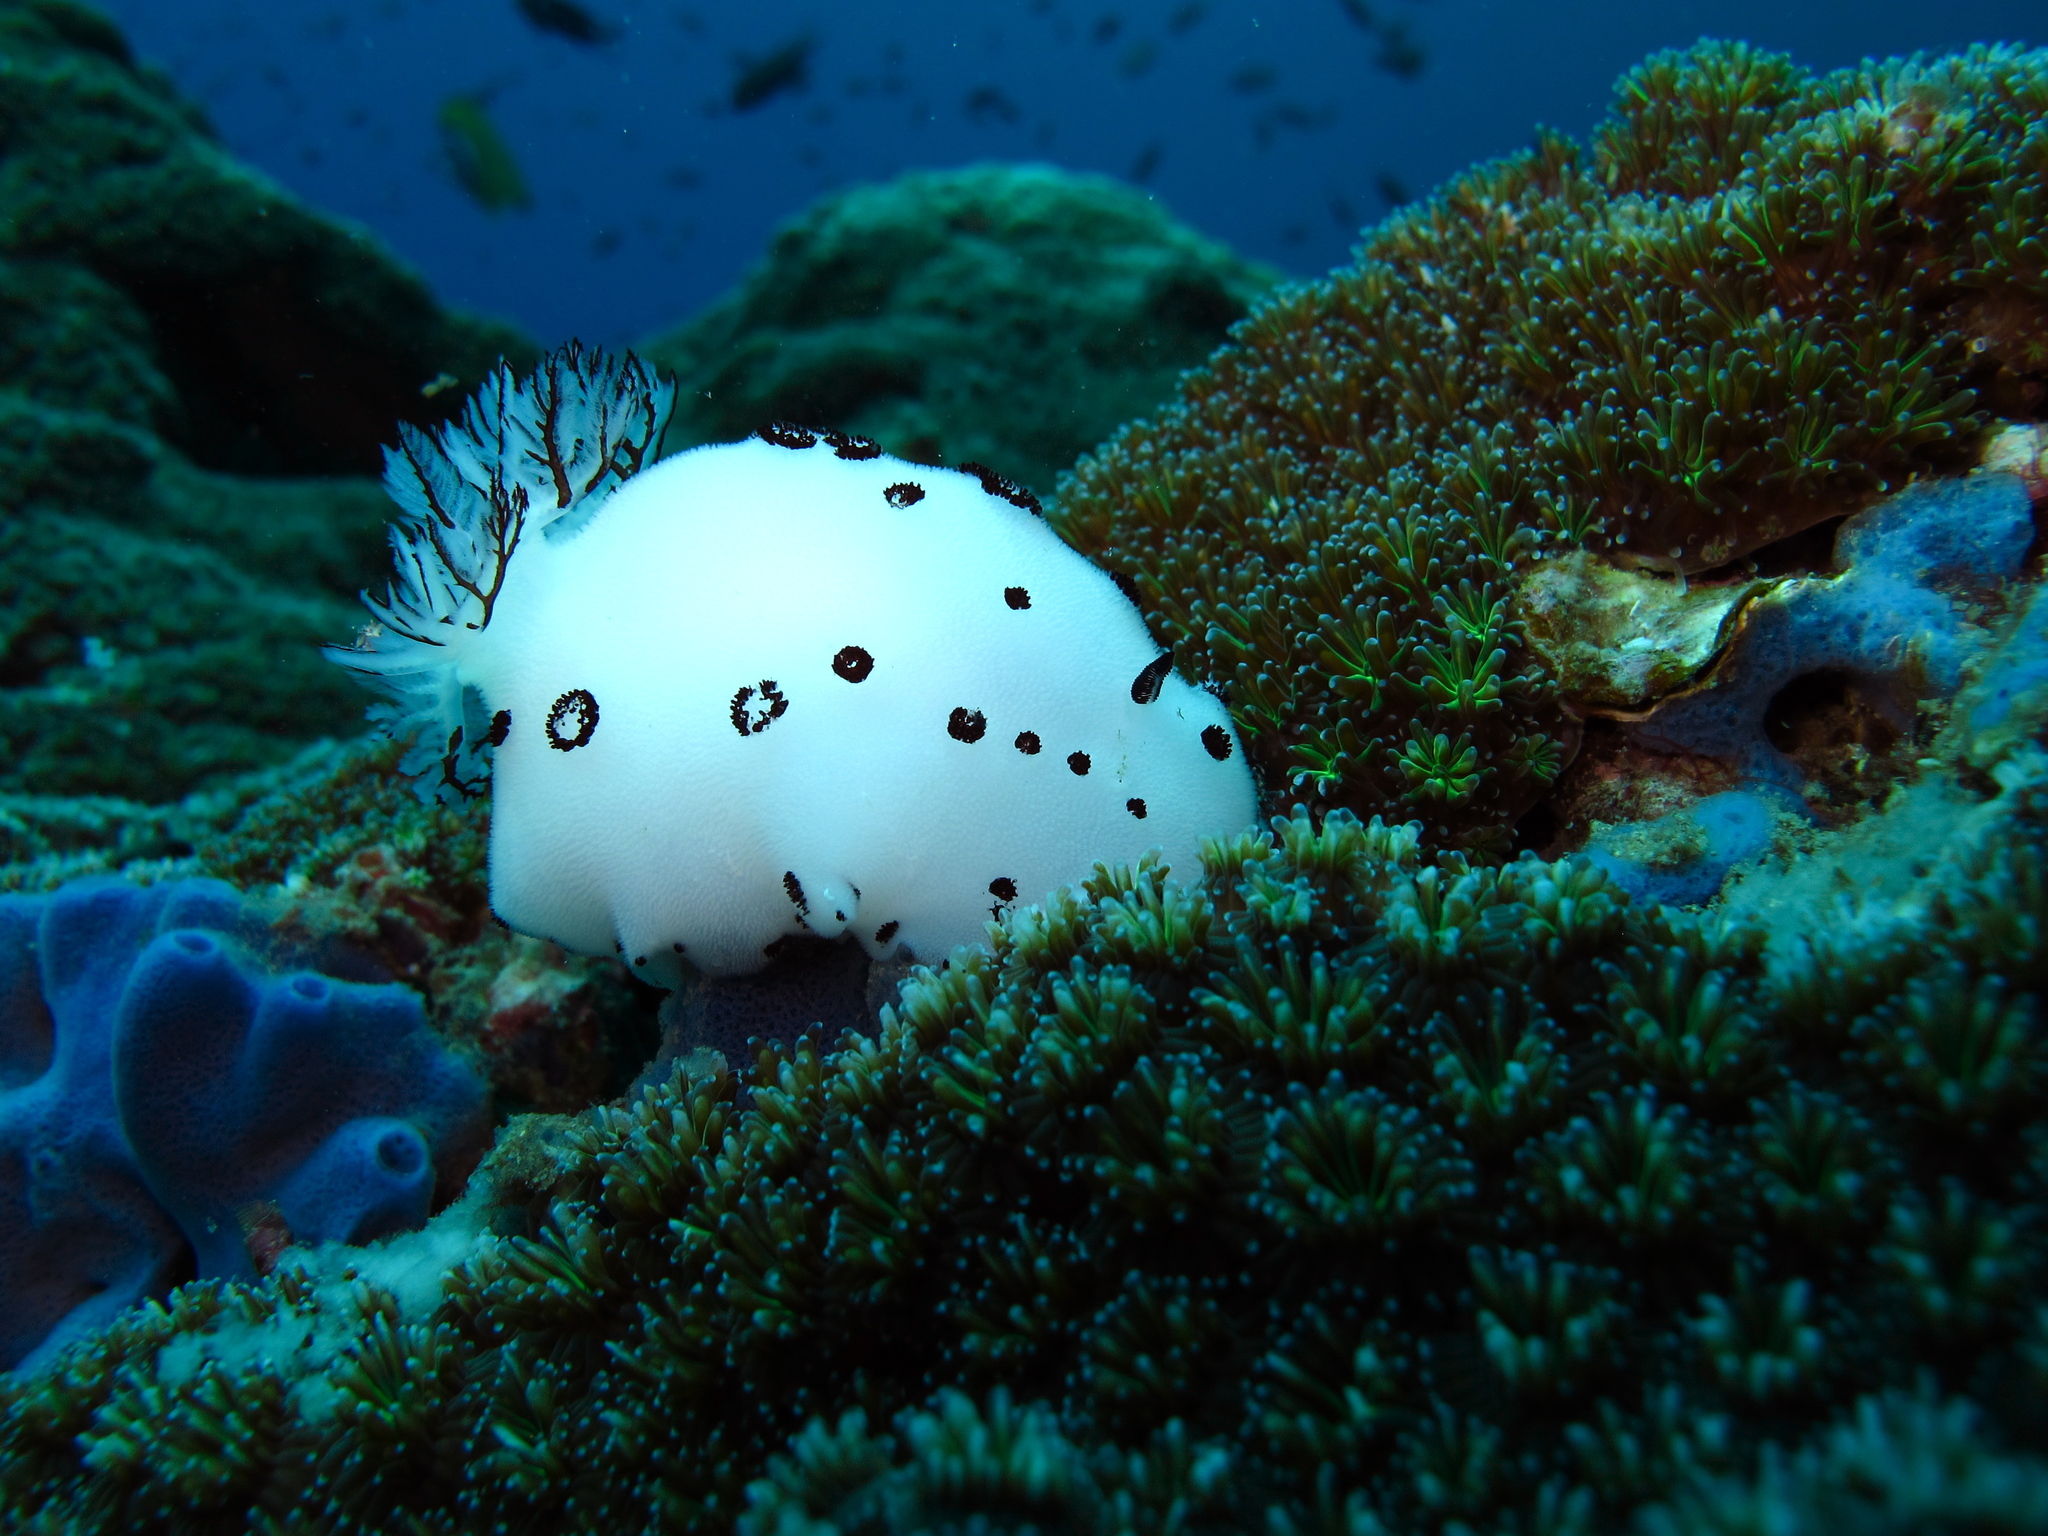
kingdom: Animalia
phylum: Mollusca
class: Gastropoda
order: Nudibranchia
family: Discodorididae
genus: Jorunna
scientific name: Jorunna funebris
